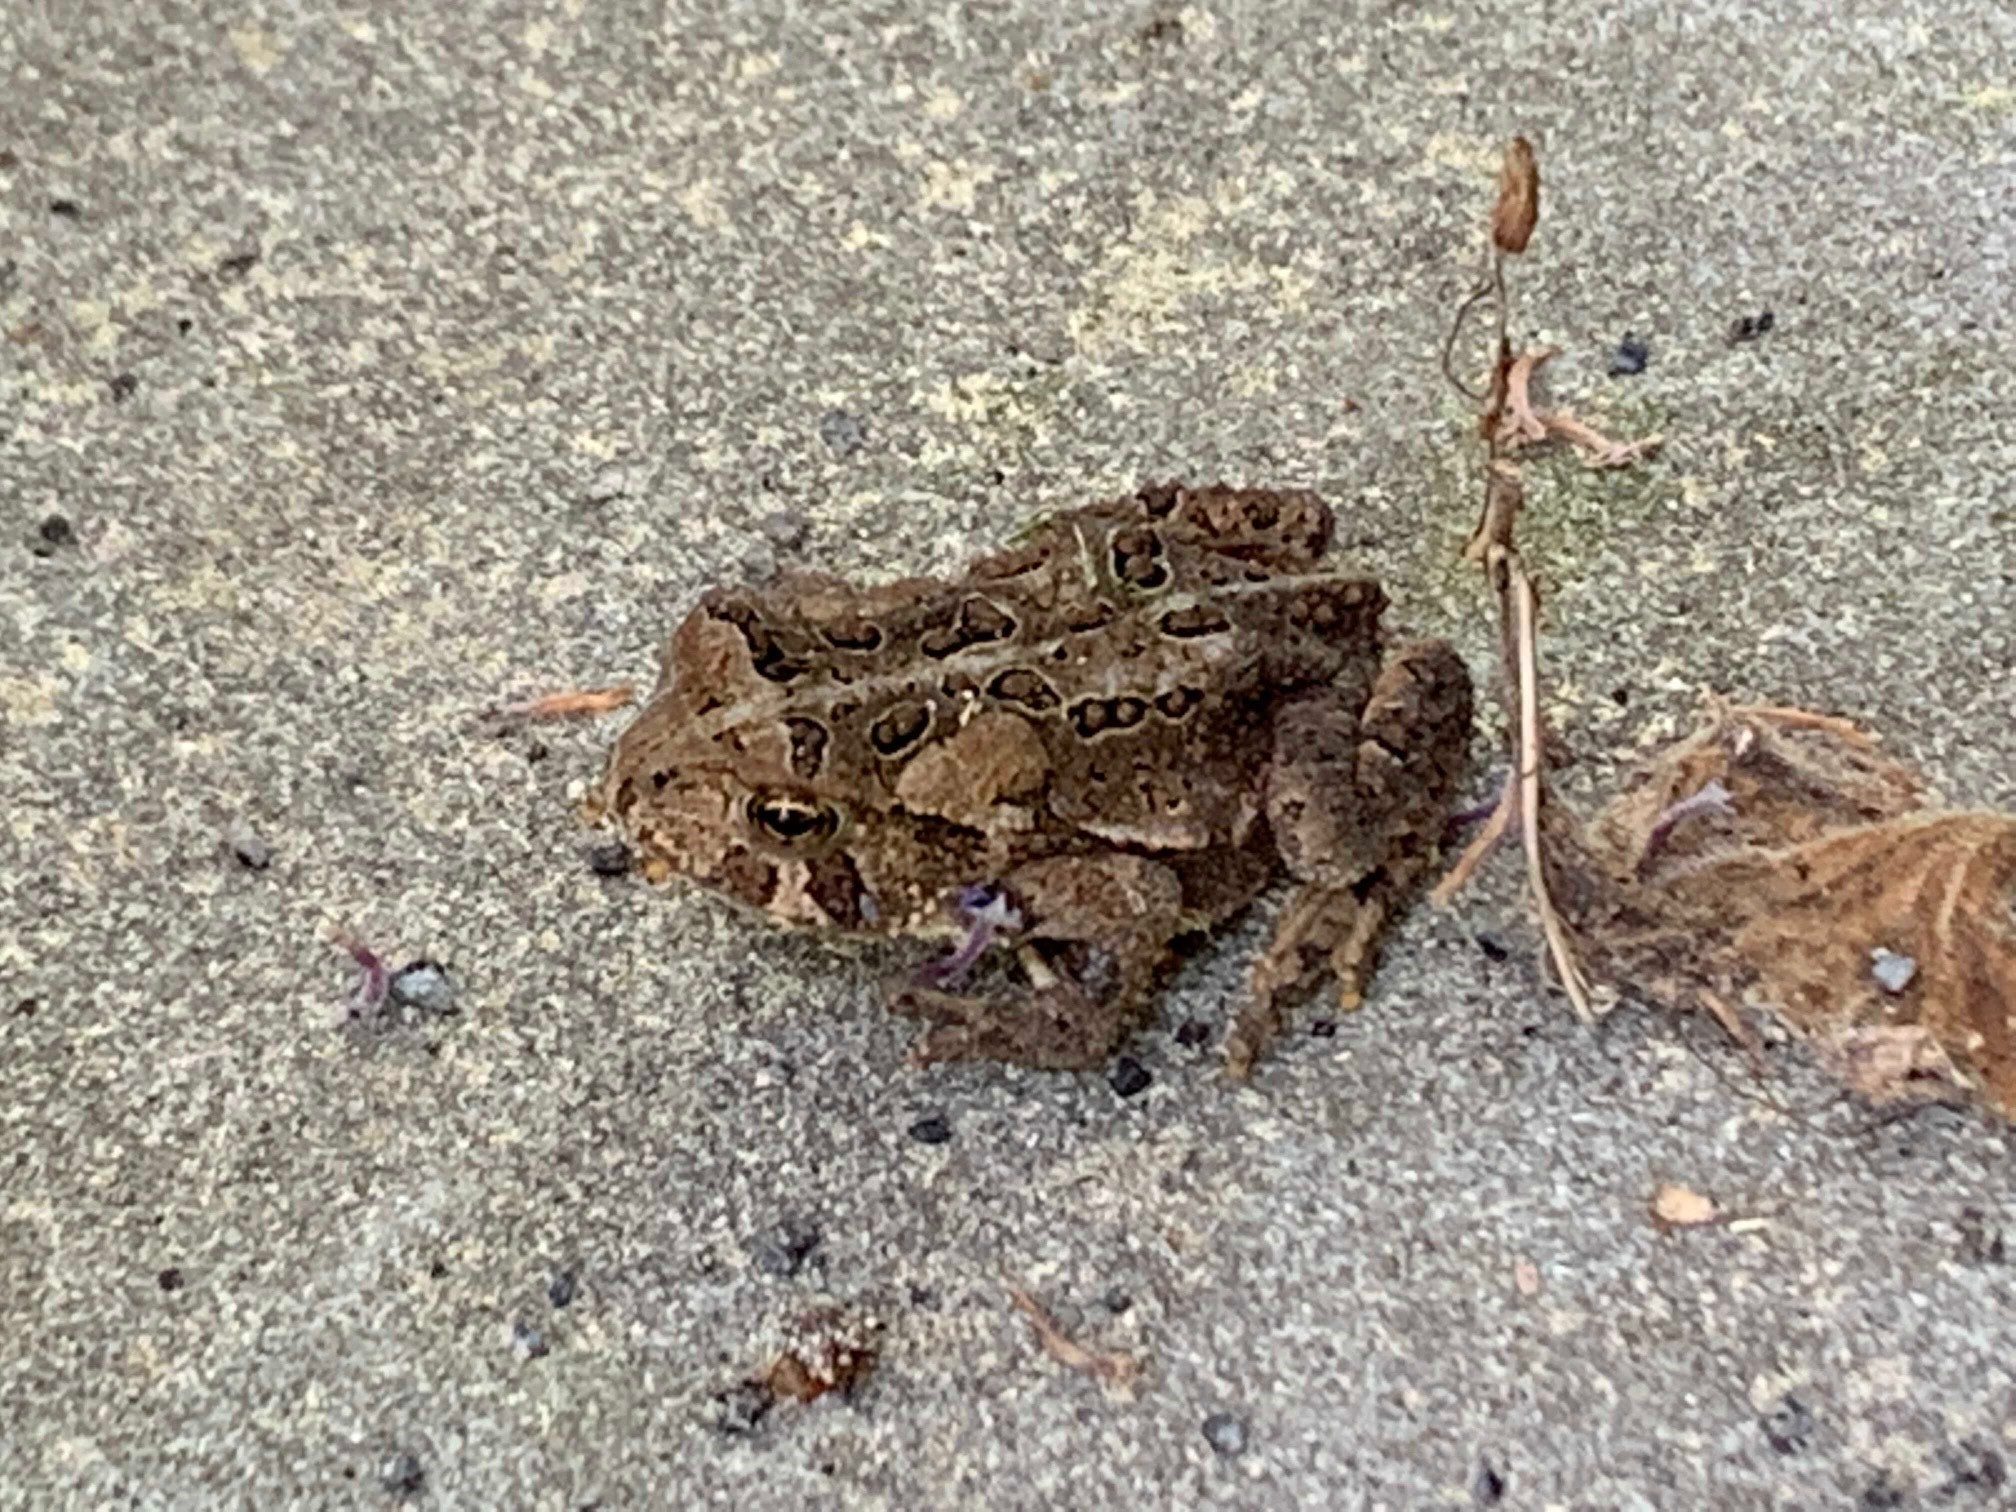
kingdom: Animalia
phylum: Chordata
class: Amphibia
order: Anura
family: Bufonidae
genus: Anaxyrus
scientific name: Anaxyrus americanus
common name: American toad
